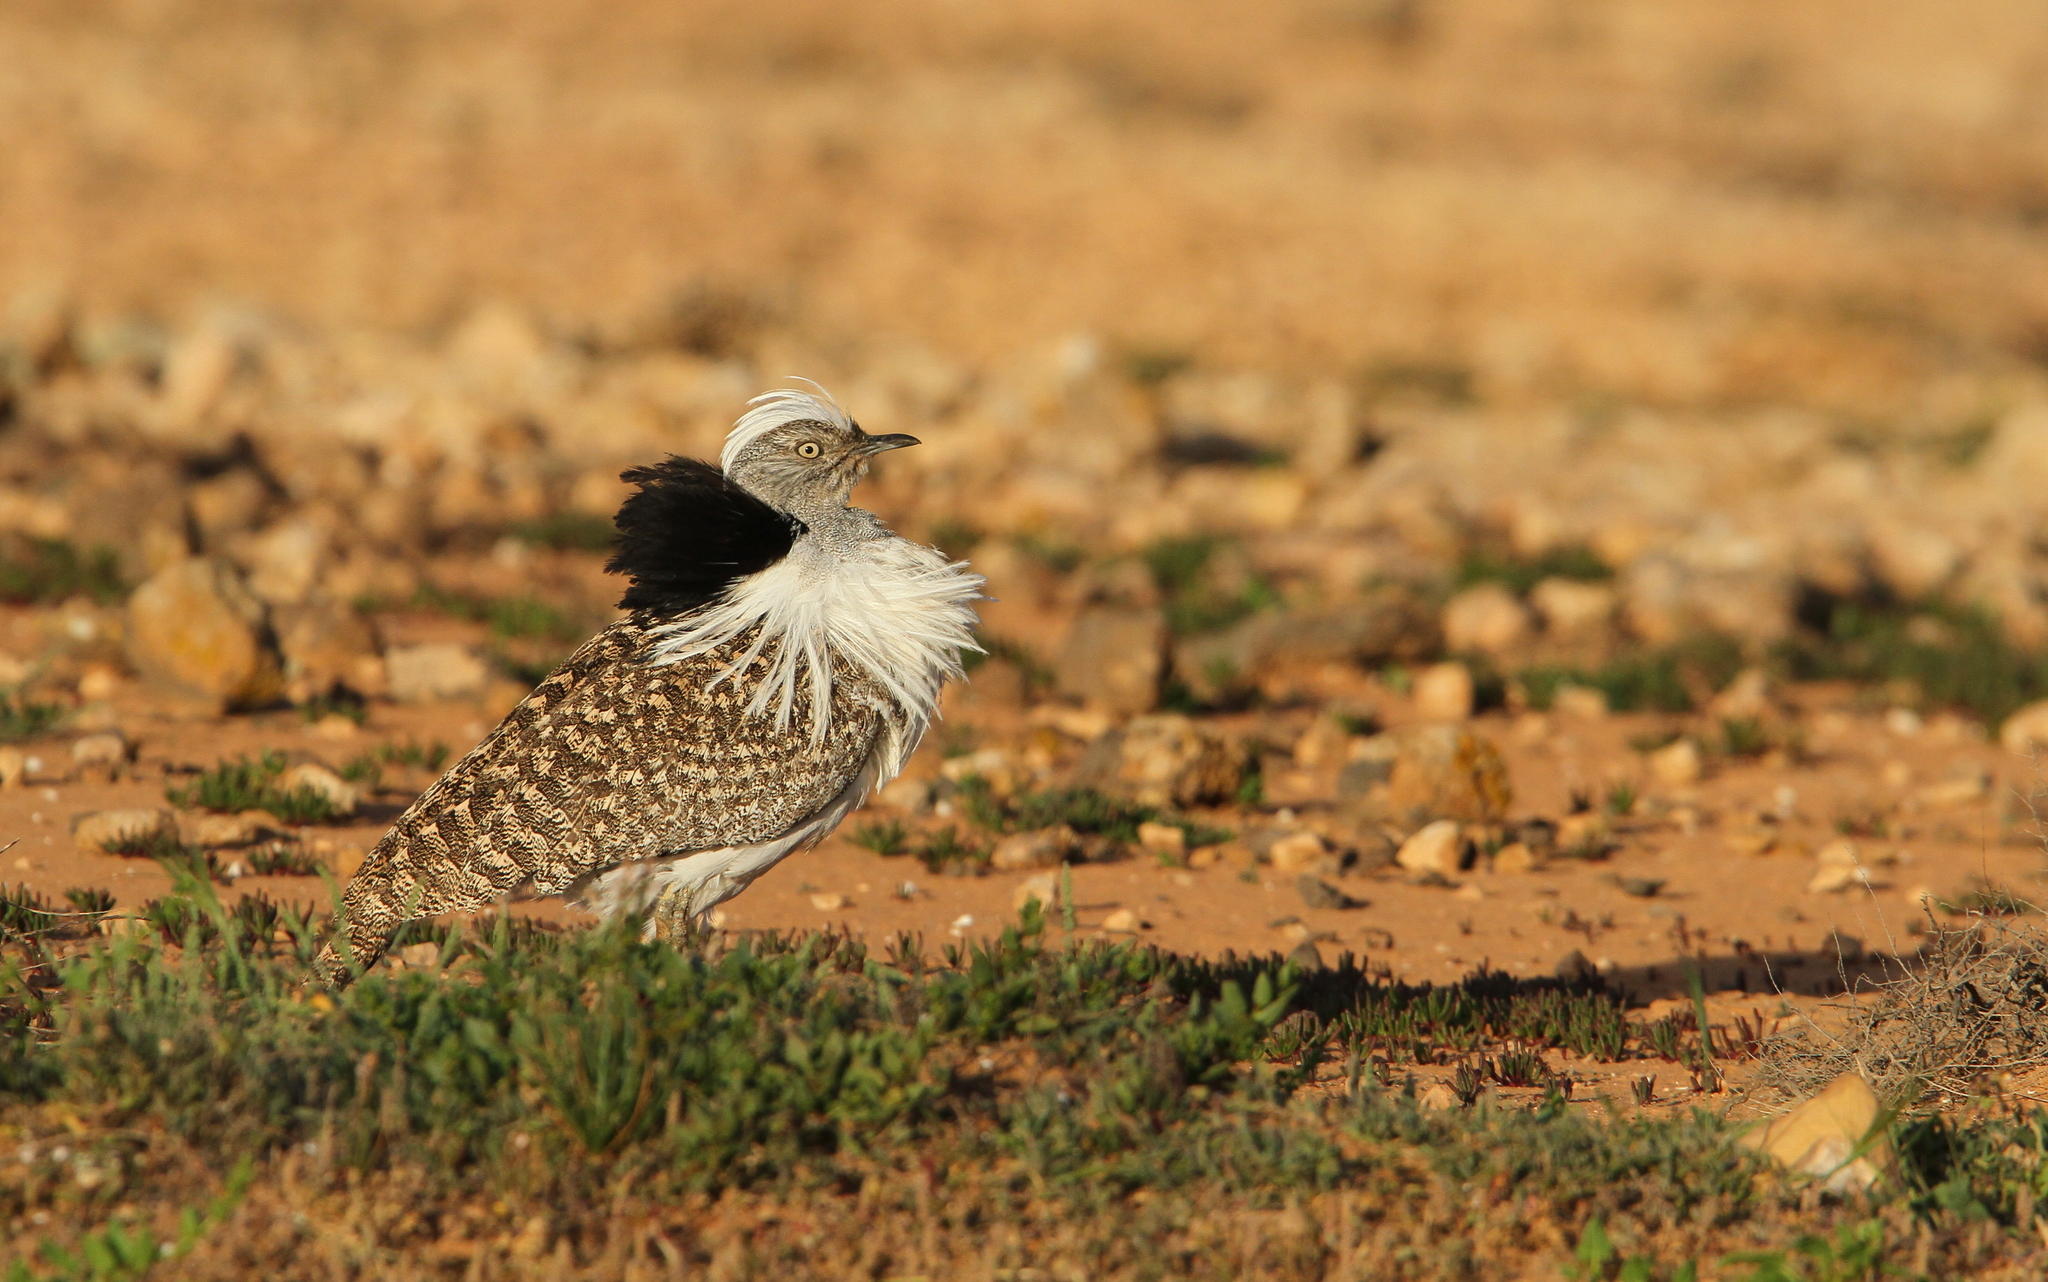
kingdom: Animalia
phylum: Chordata
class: Aves
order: Otidiformes
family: Otididae
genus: Chlamydotis
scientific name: Chlamydotis undulata
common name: Houbara bustard
